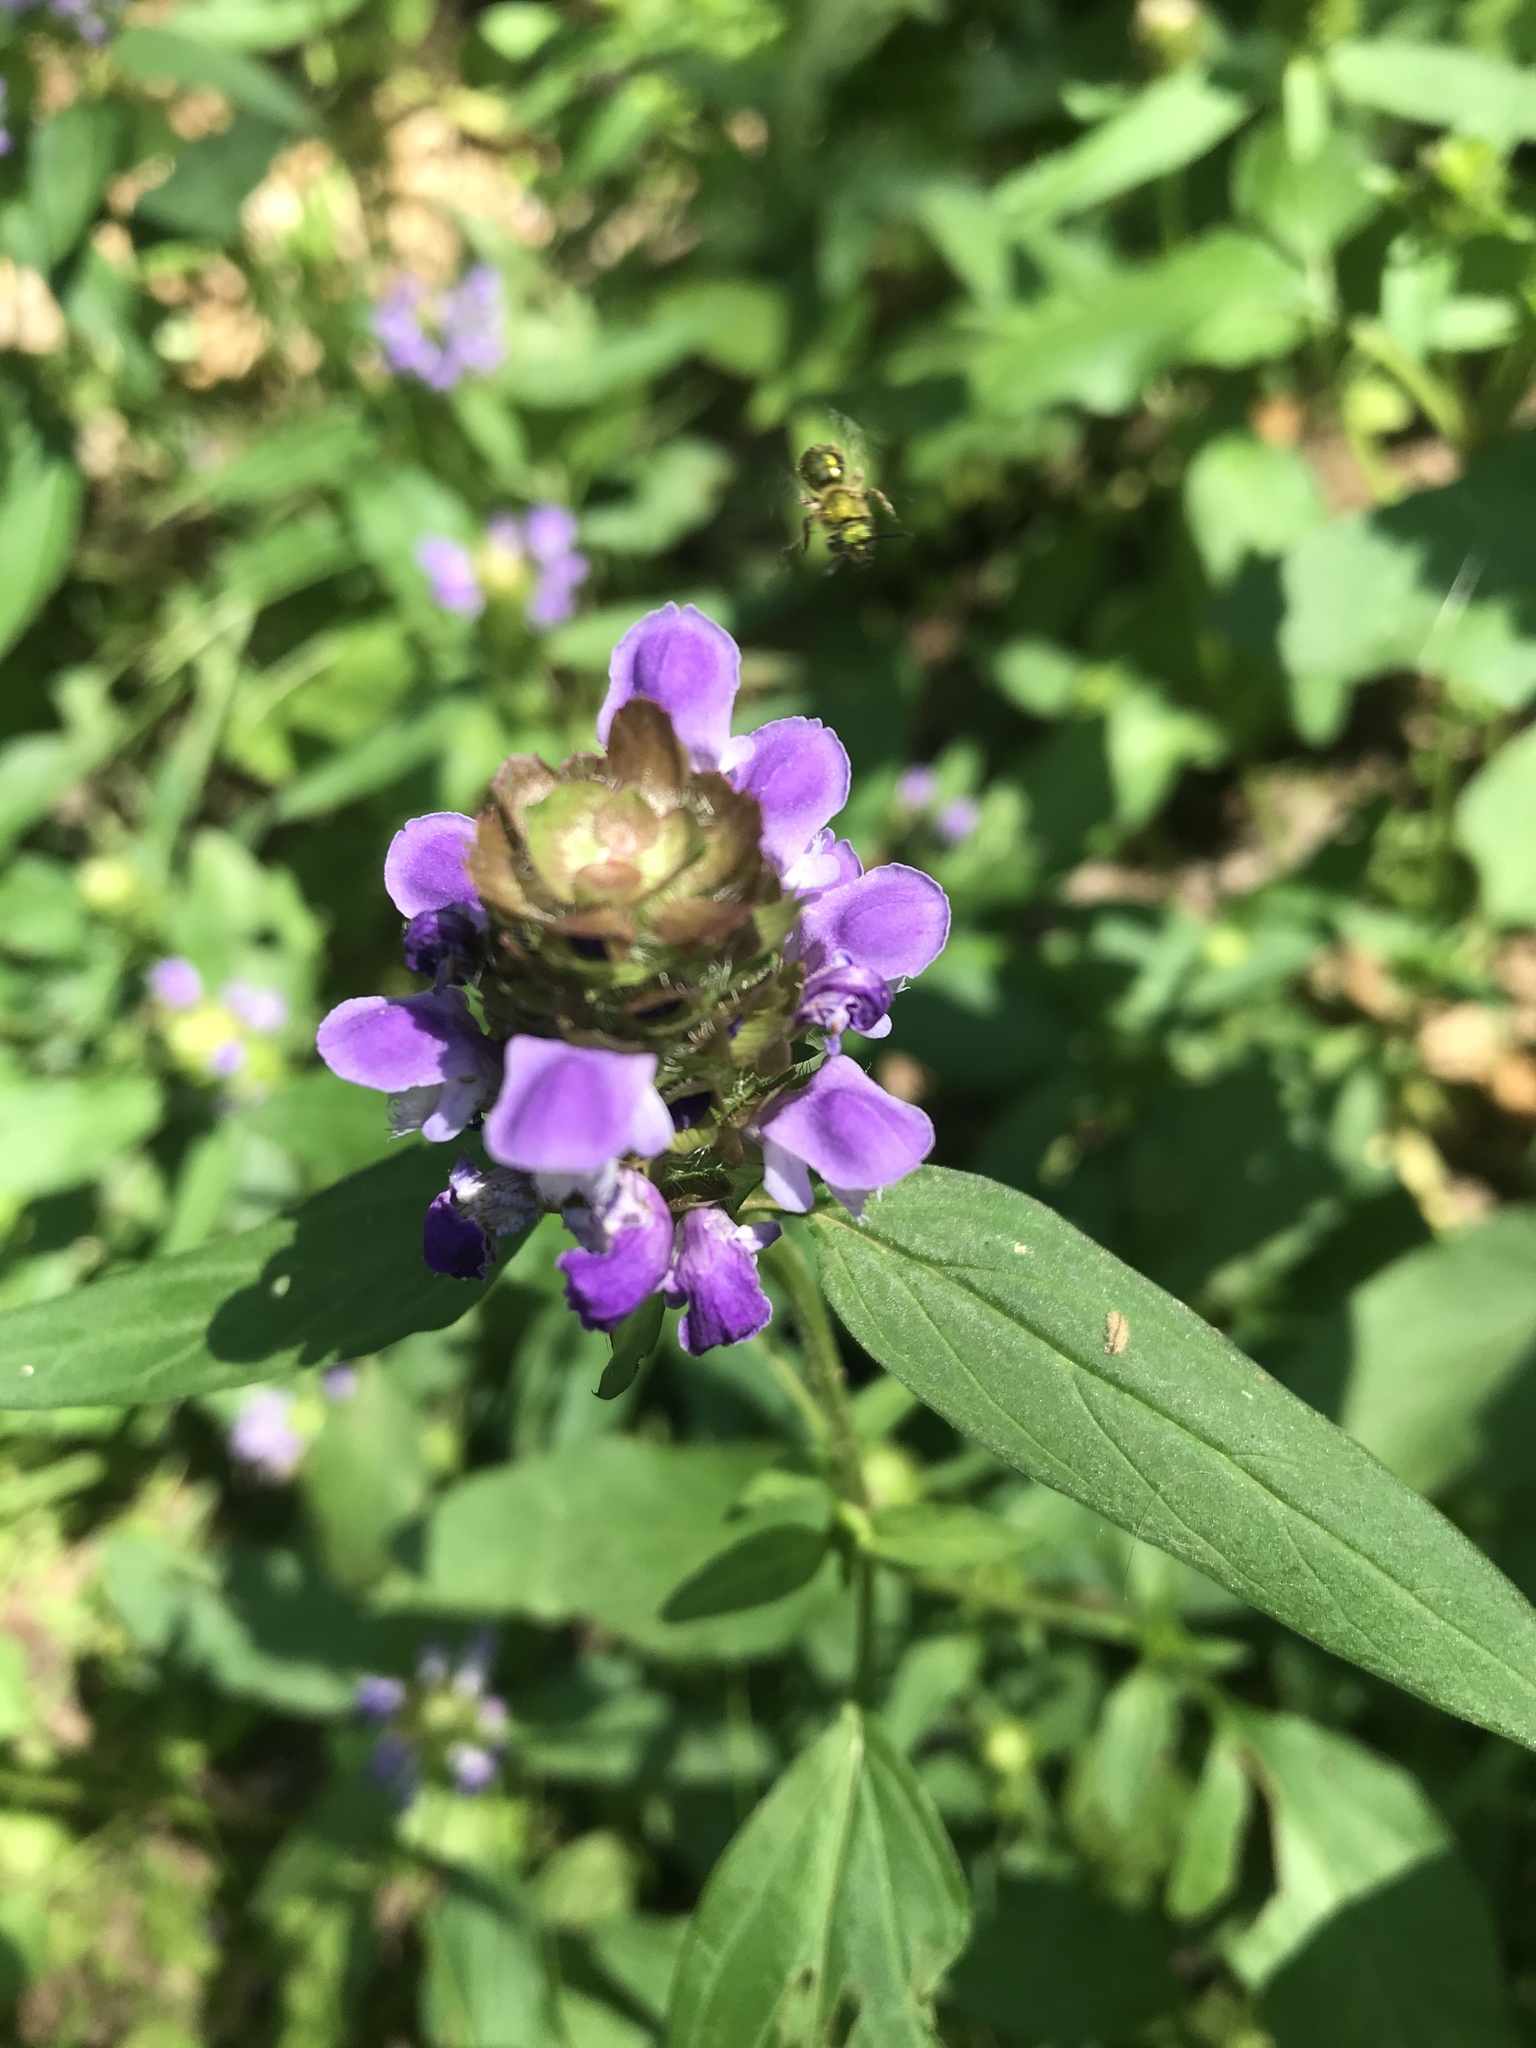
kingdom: Plantae
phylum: Tracheophyta
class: Magnoliopsida
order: Lamiales
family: Lamiaceae
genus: Prunella
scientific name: Prunella vulgaris
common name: Heal-all
